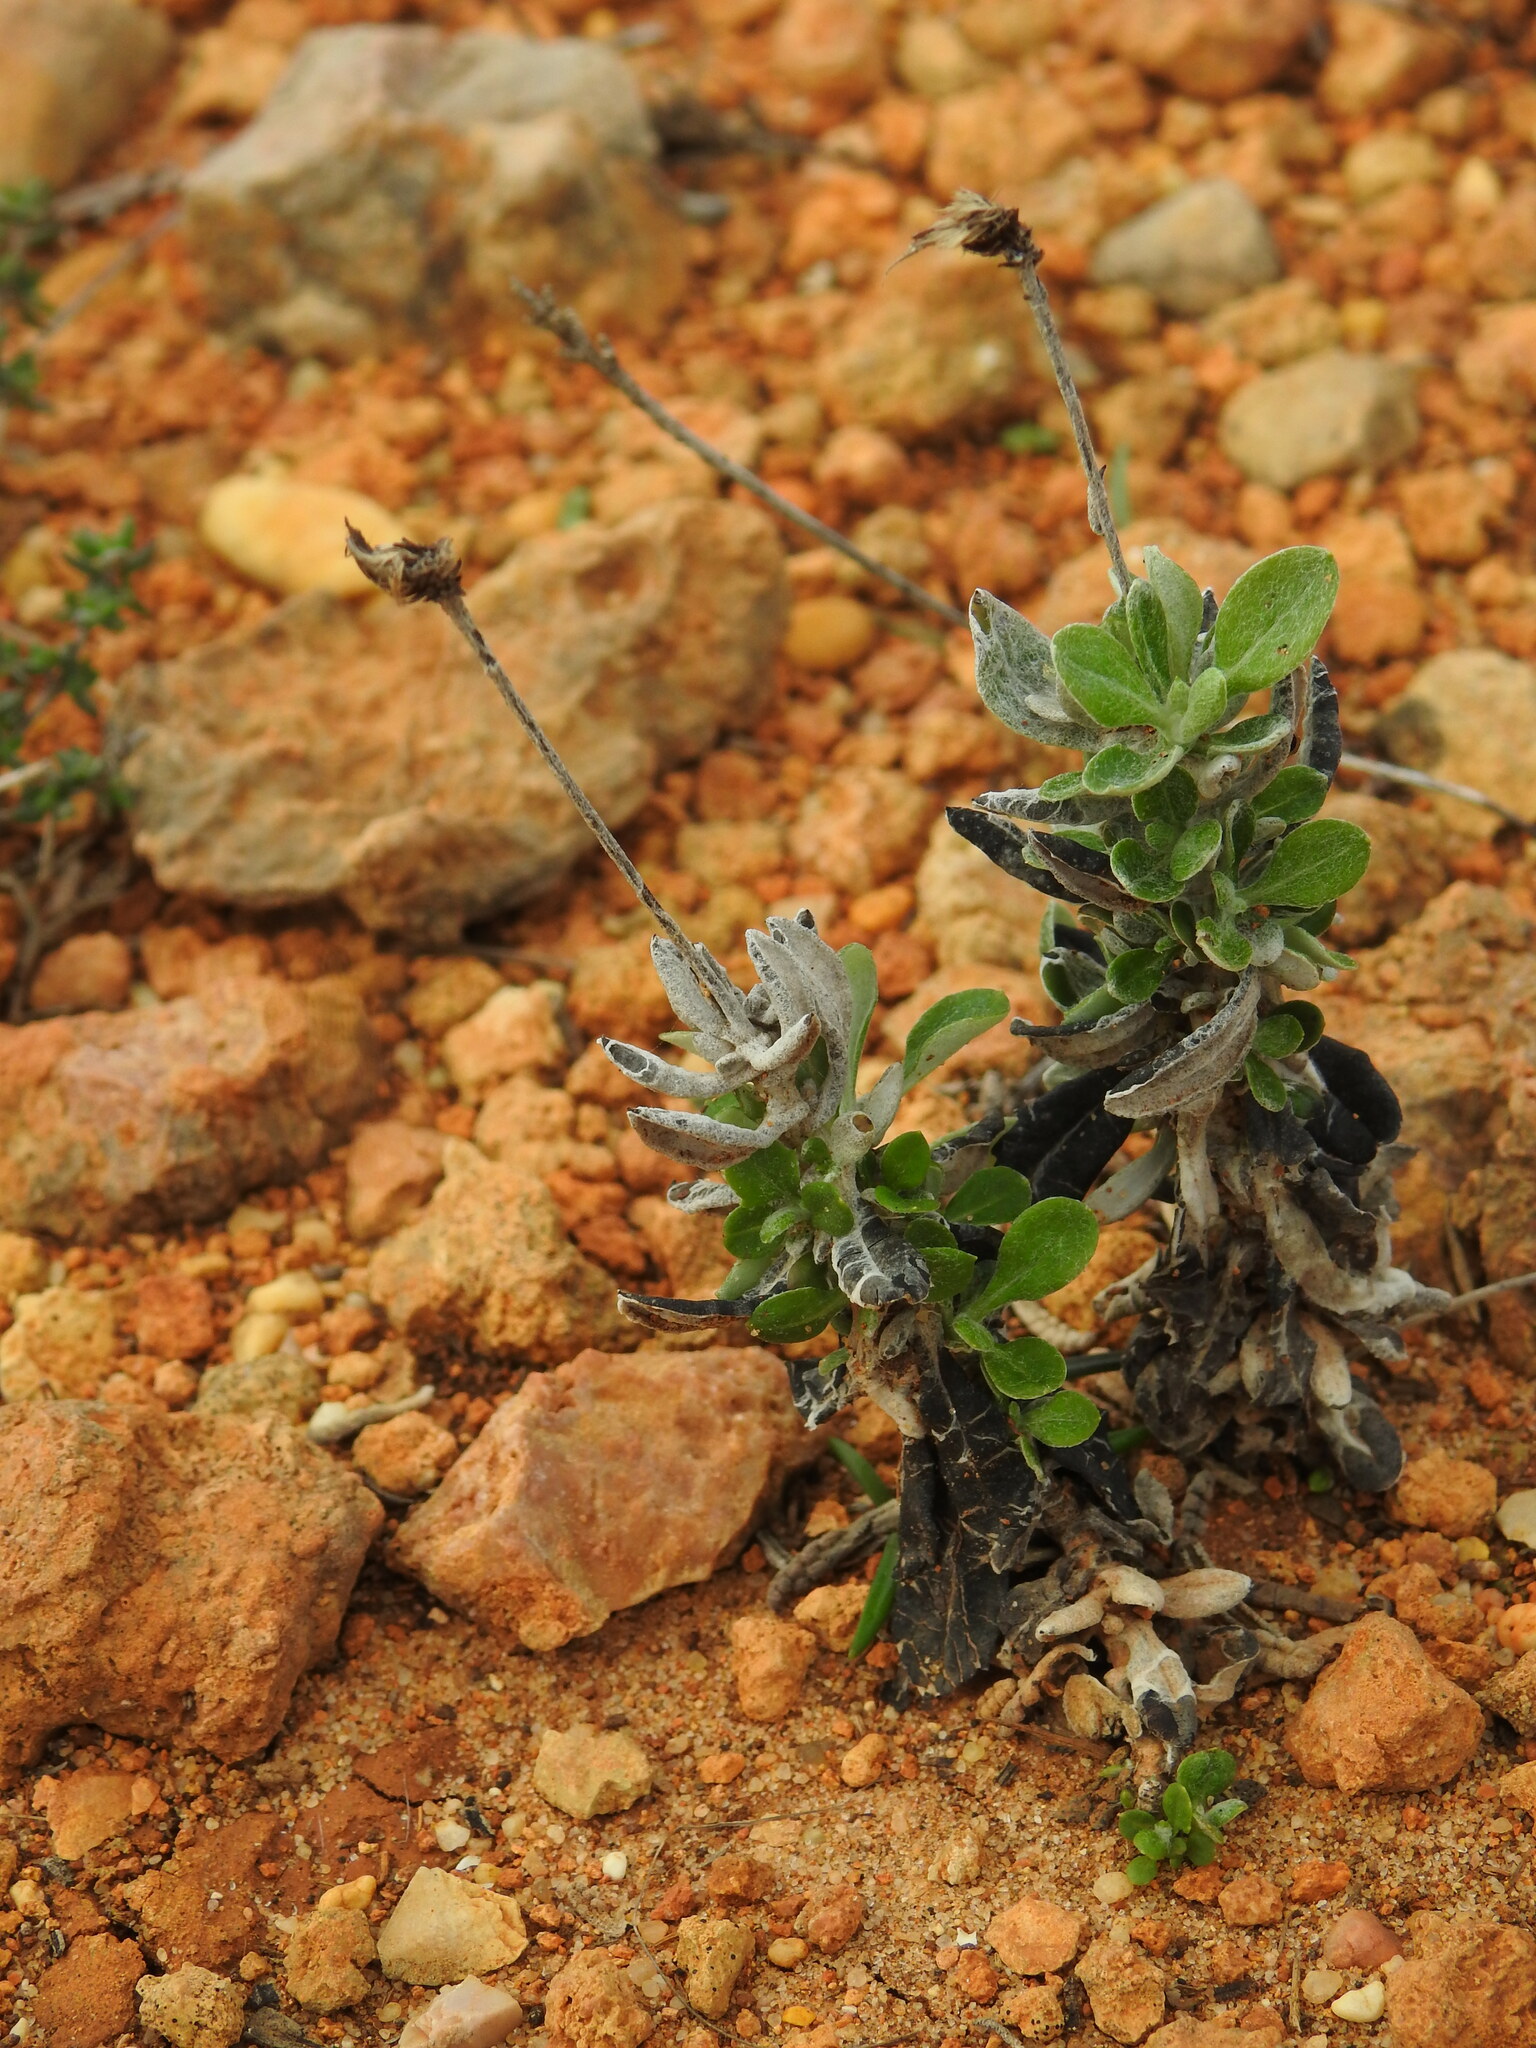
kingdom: Plantae
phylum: Tracheophyta
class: Magnoliopsida
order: Asterales
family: Asteraceae
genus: Phagnalon
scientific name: Phagnalon rupestre
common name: Rock phagnalon
